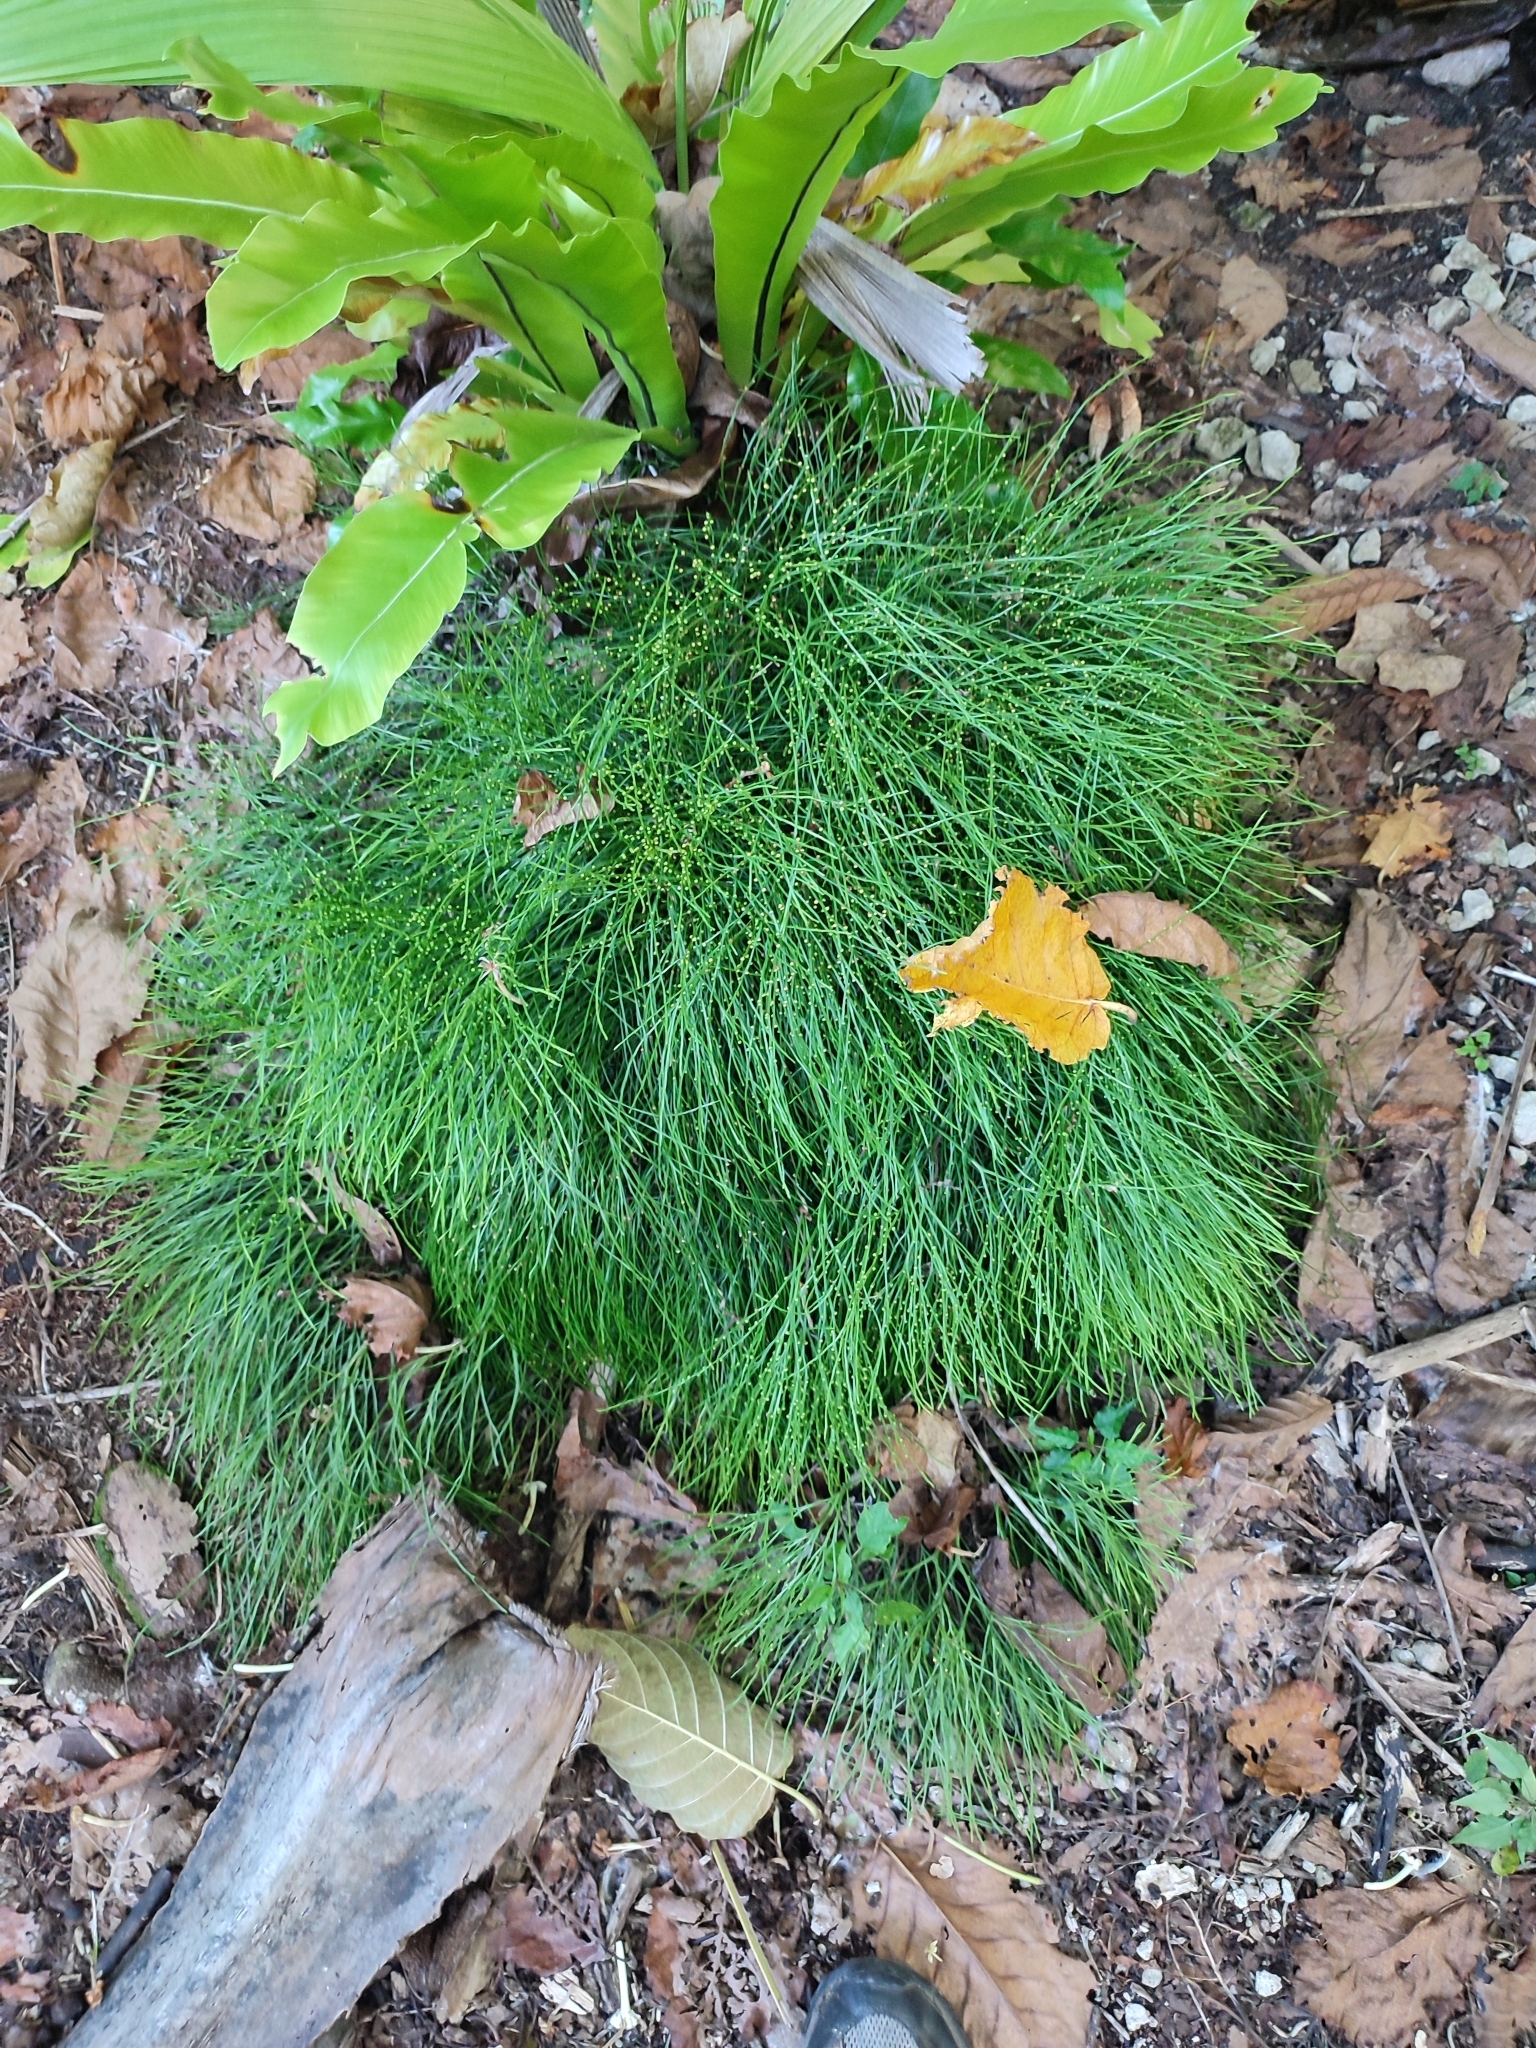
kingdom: Plantae
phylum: Tracheophyta
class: Polypodiopsida
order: Psilotales
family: Psilotaceae
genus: Psilotum
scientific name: Psilotum nudum
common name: Skeleton fork fern
